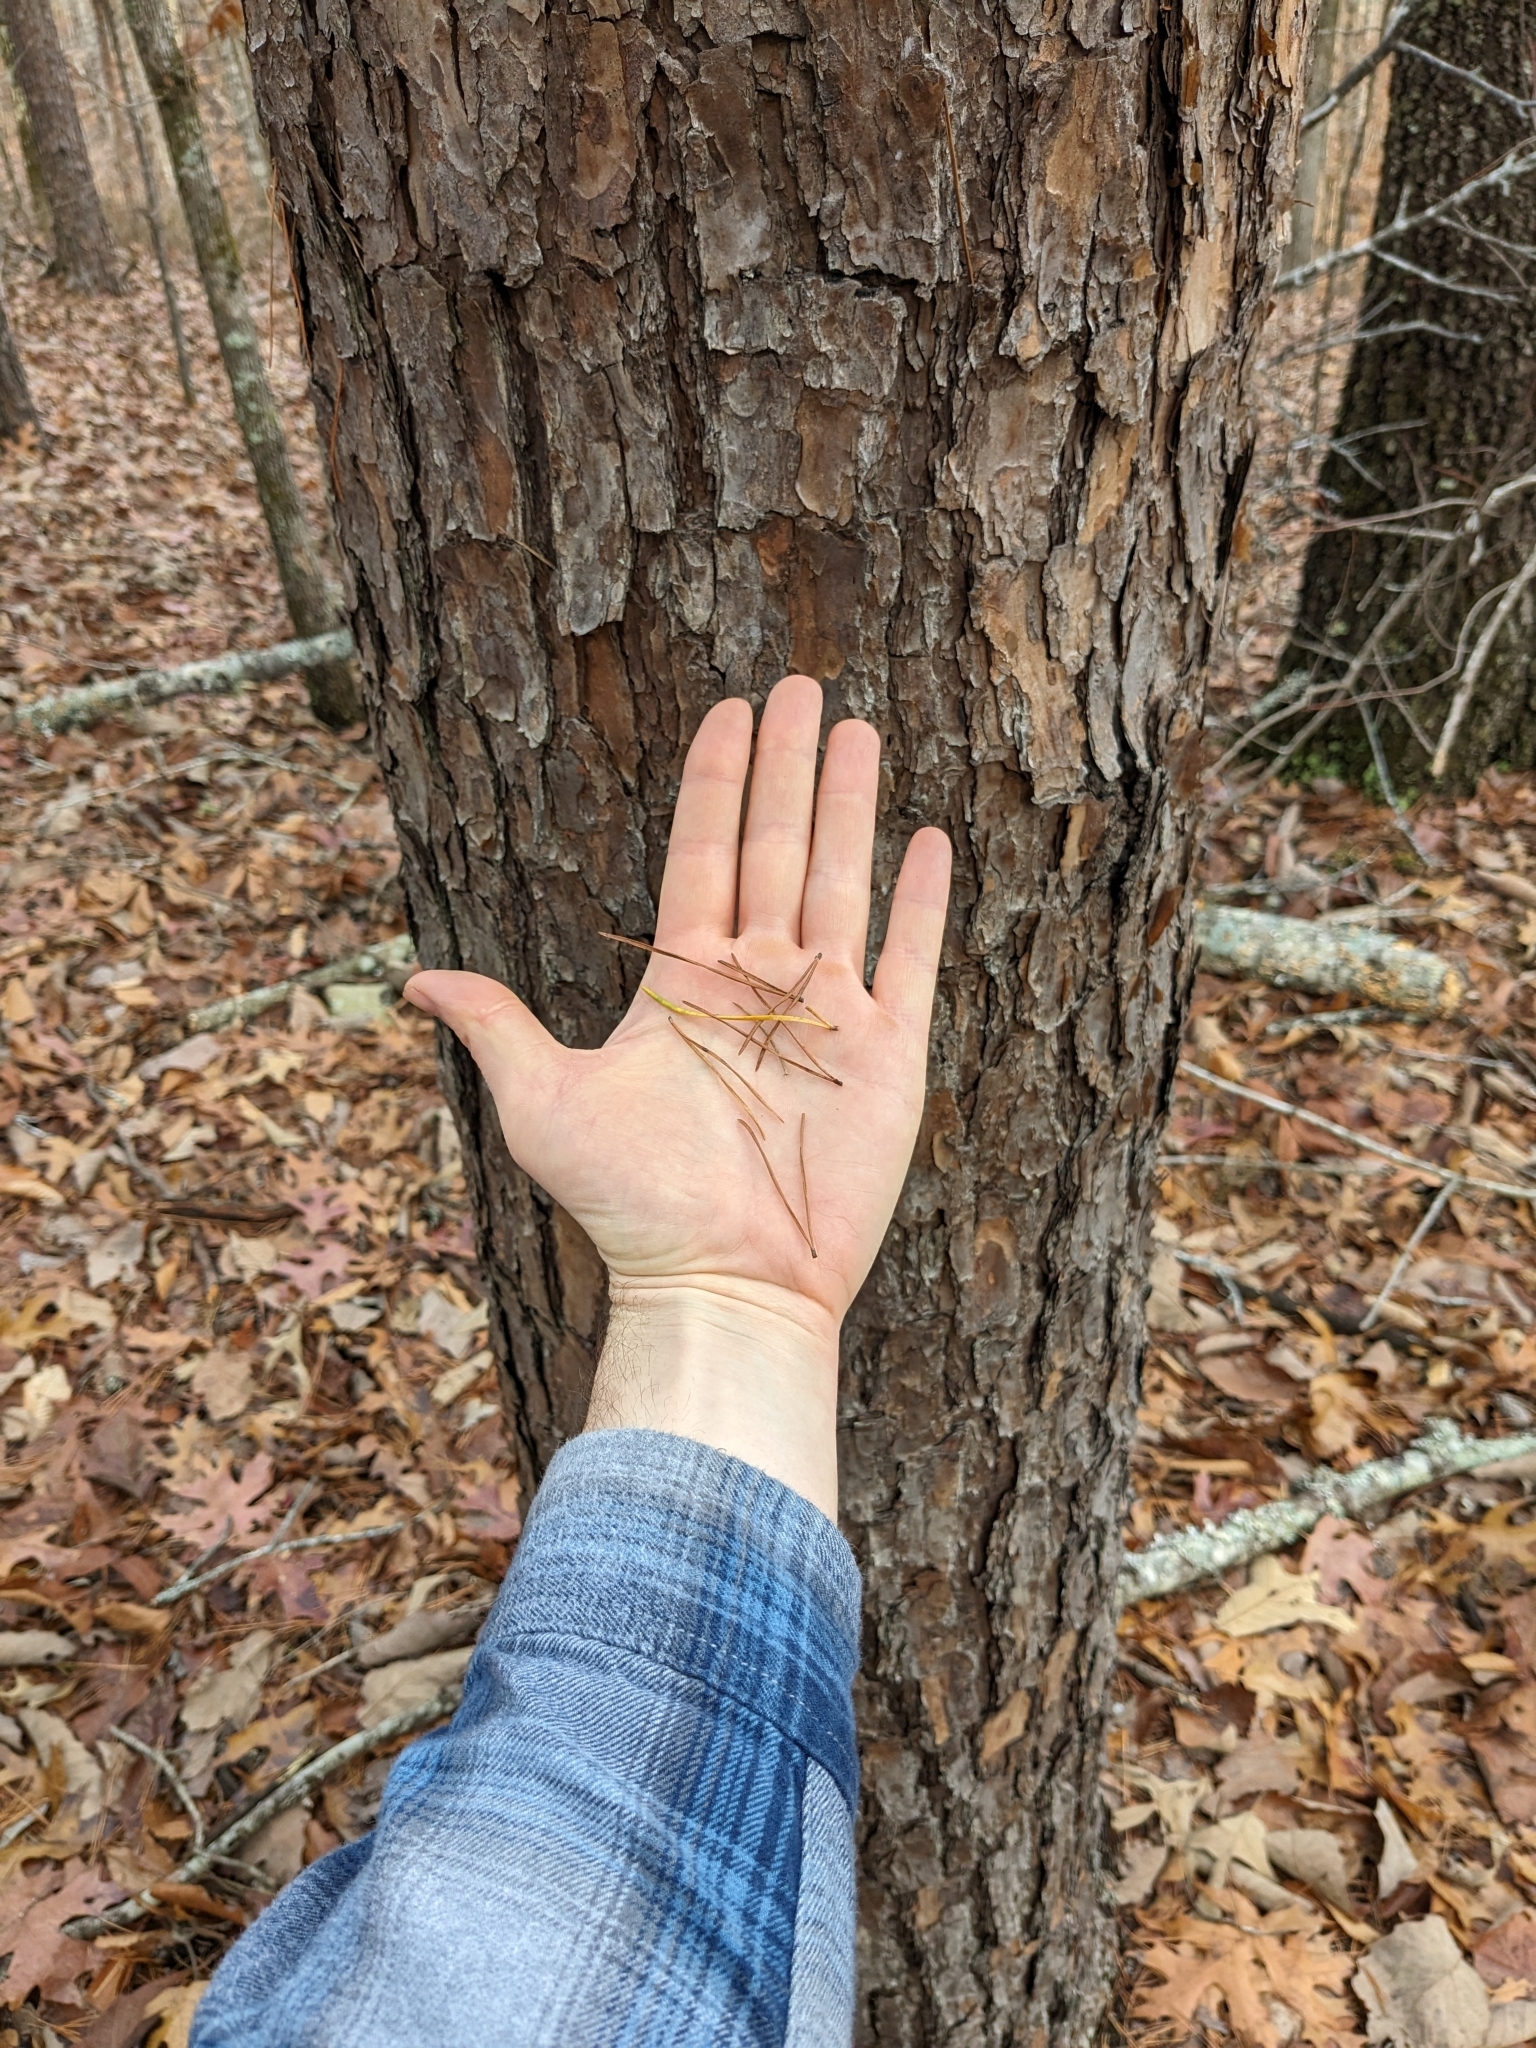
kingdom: Plantae
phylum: Tracheophyta
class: Pinopsida
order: Pinales
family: Pinaceae
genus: Pinus
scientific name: Pinus virginiana
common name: Scrub pine
